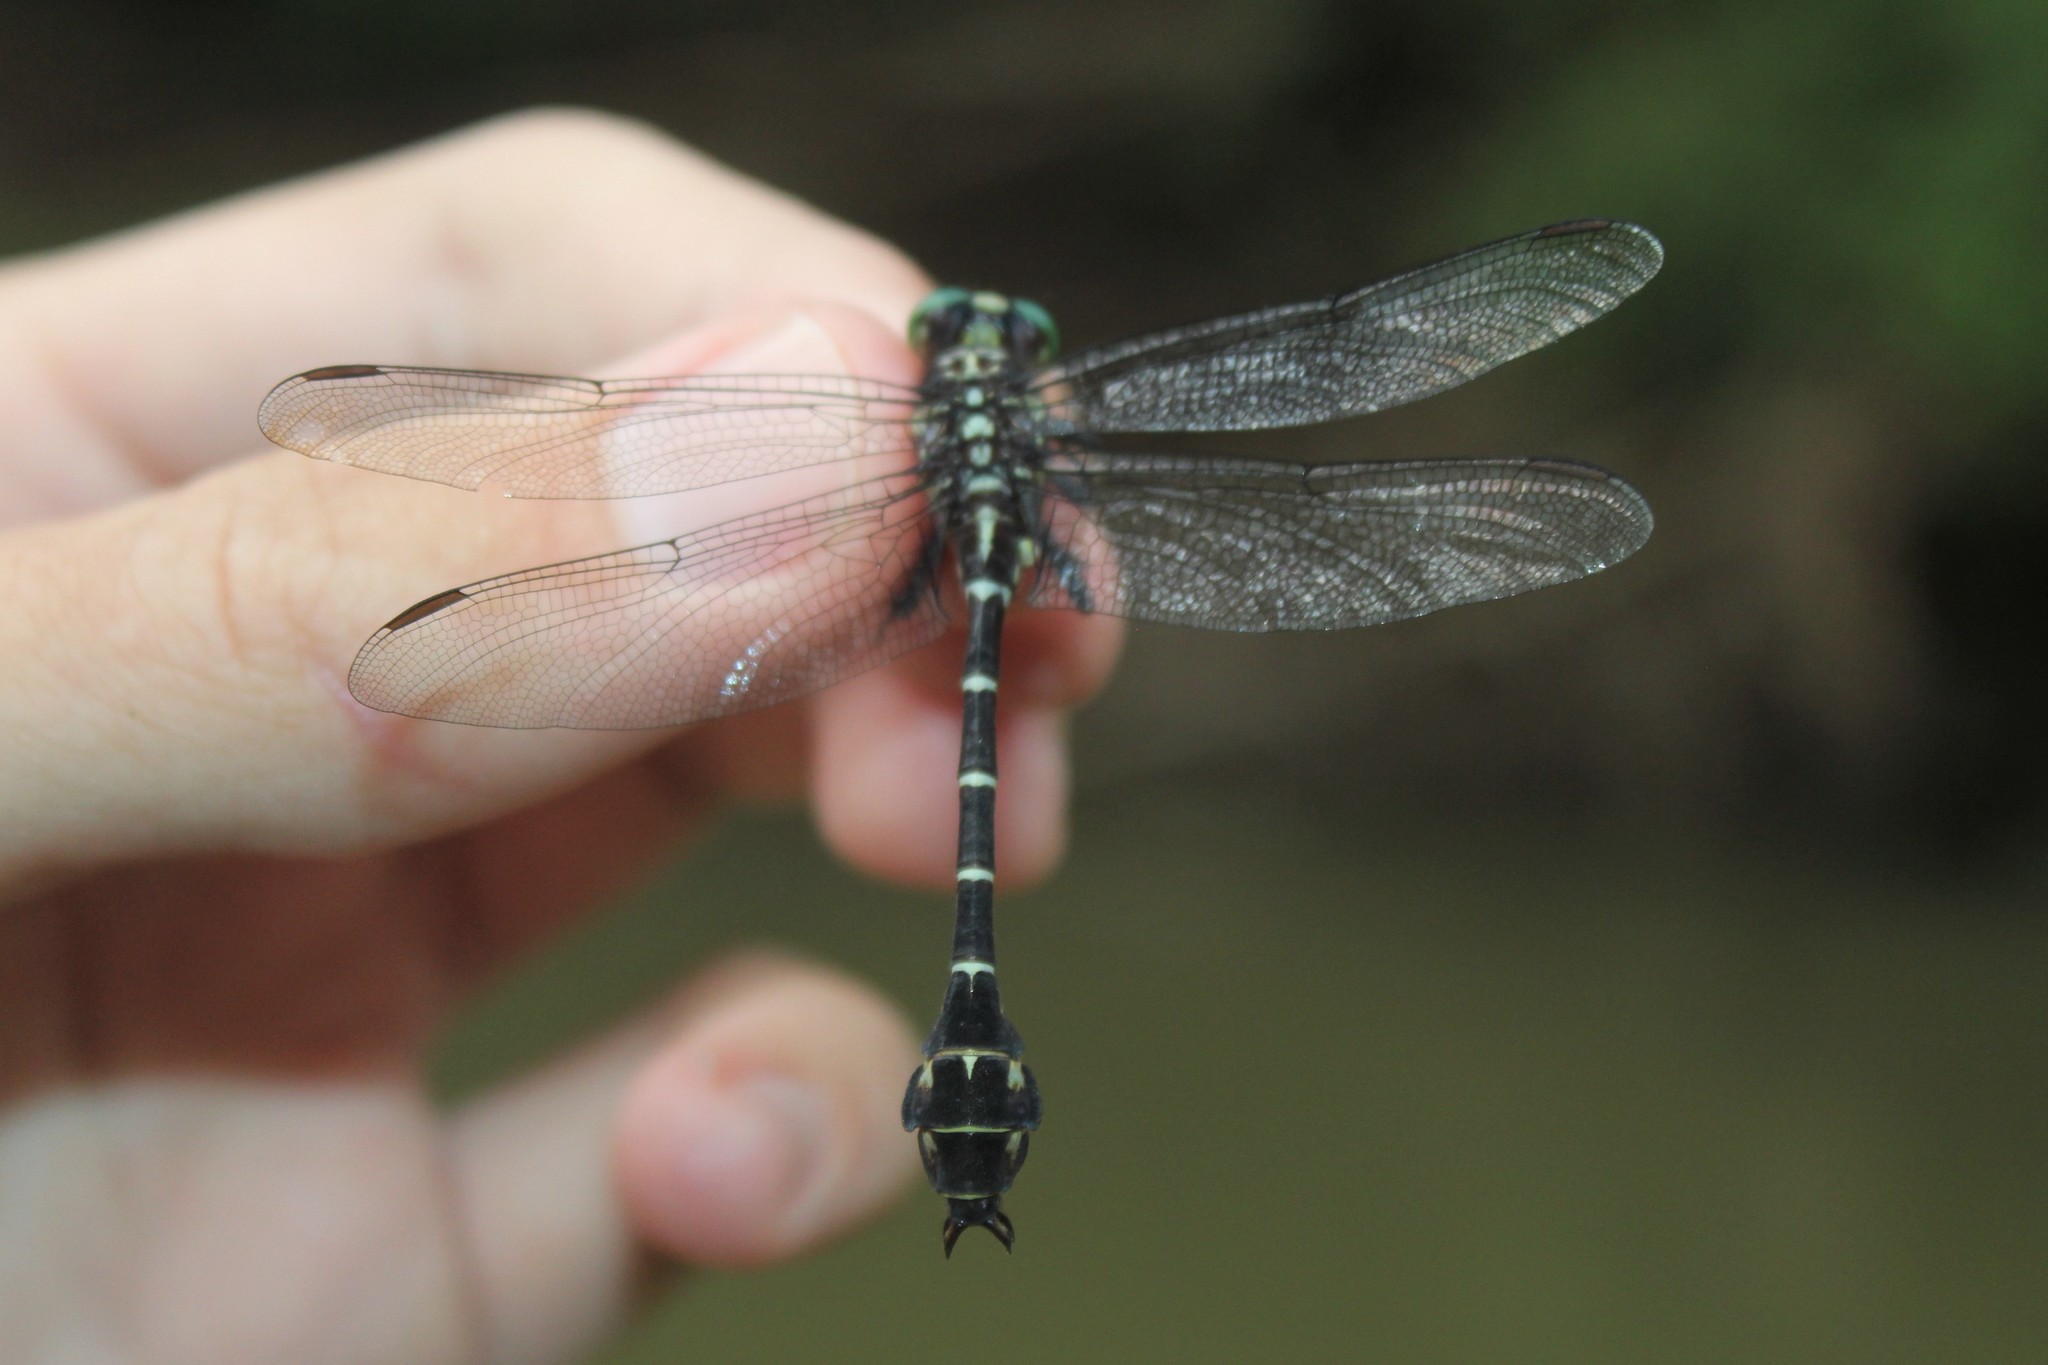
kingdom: Animalia
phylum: Arthropoda
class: Insecta
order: Odonata
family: Gomphidae
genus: Stylurus
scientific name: Stylurus scudderi
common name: Zebra clubtail
